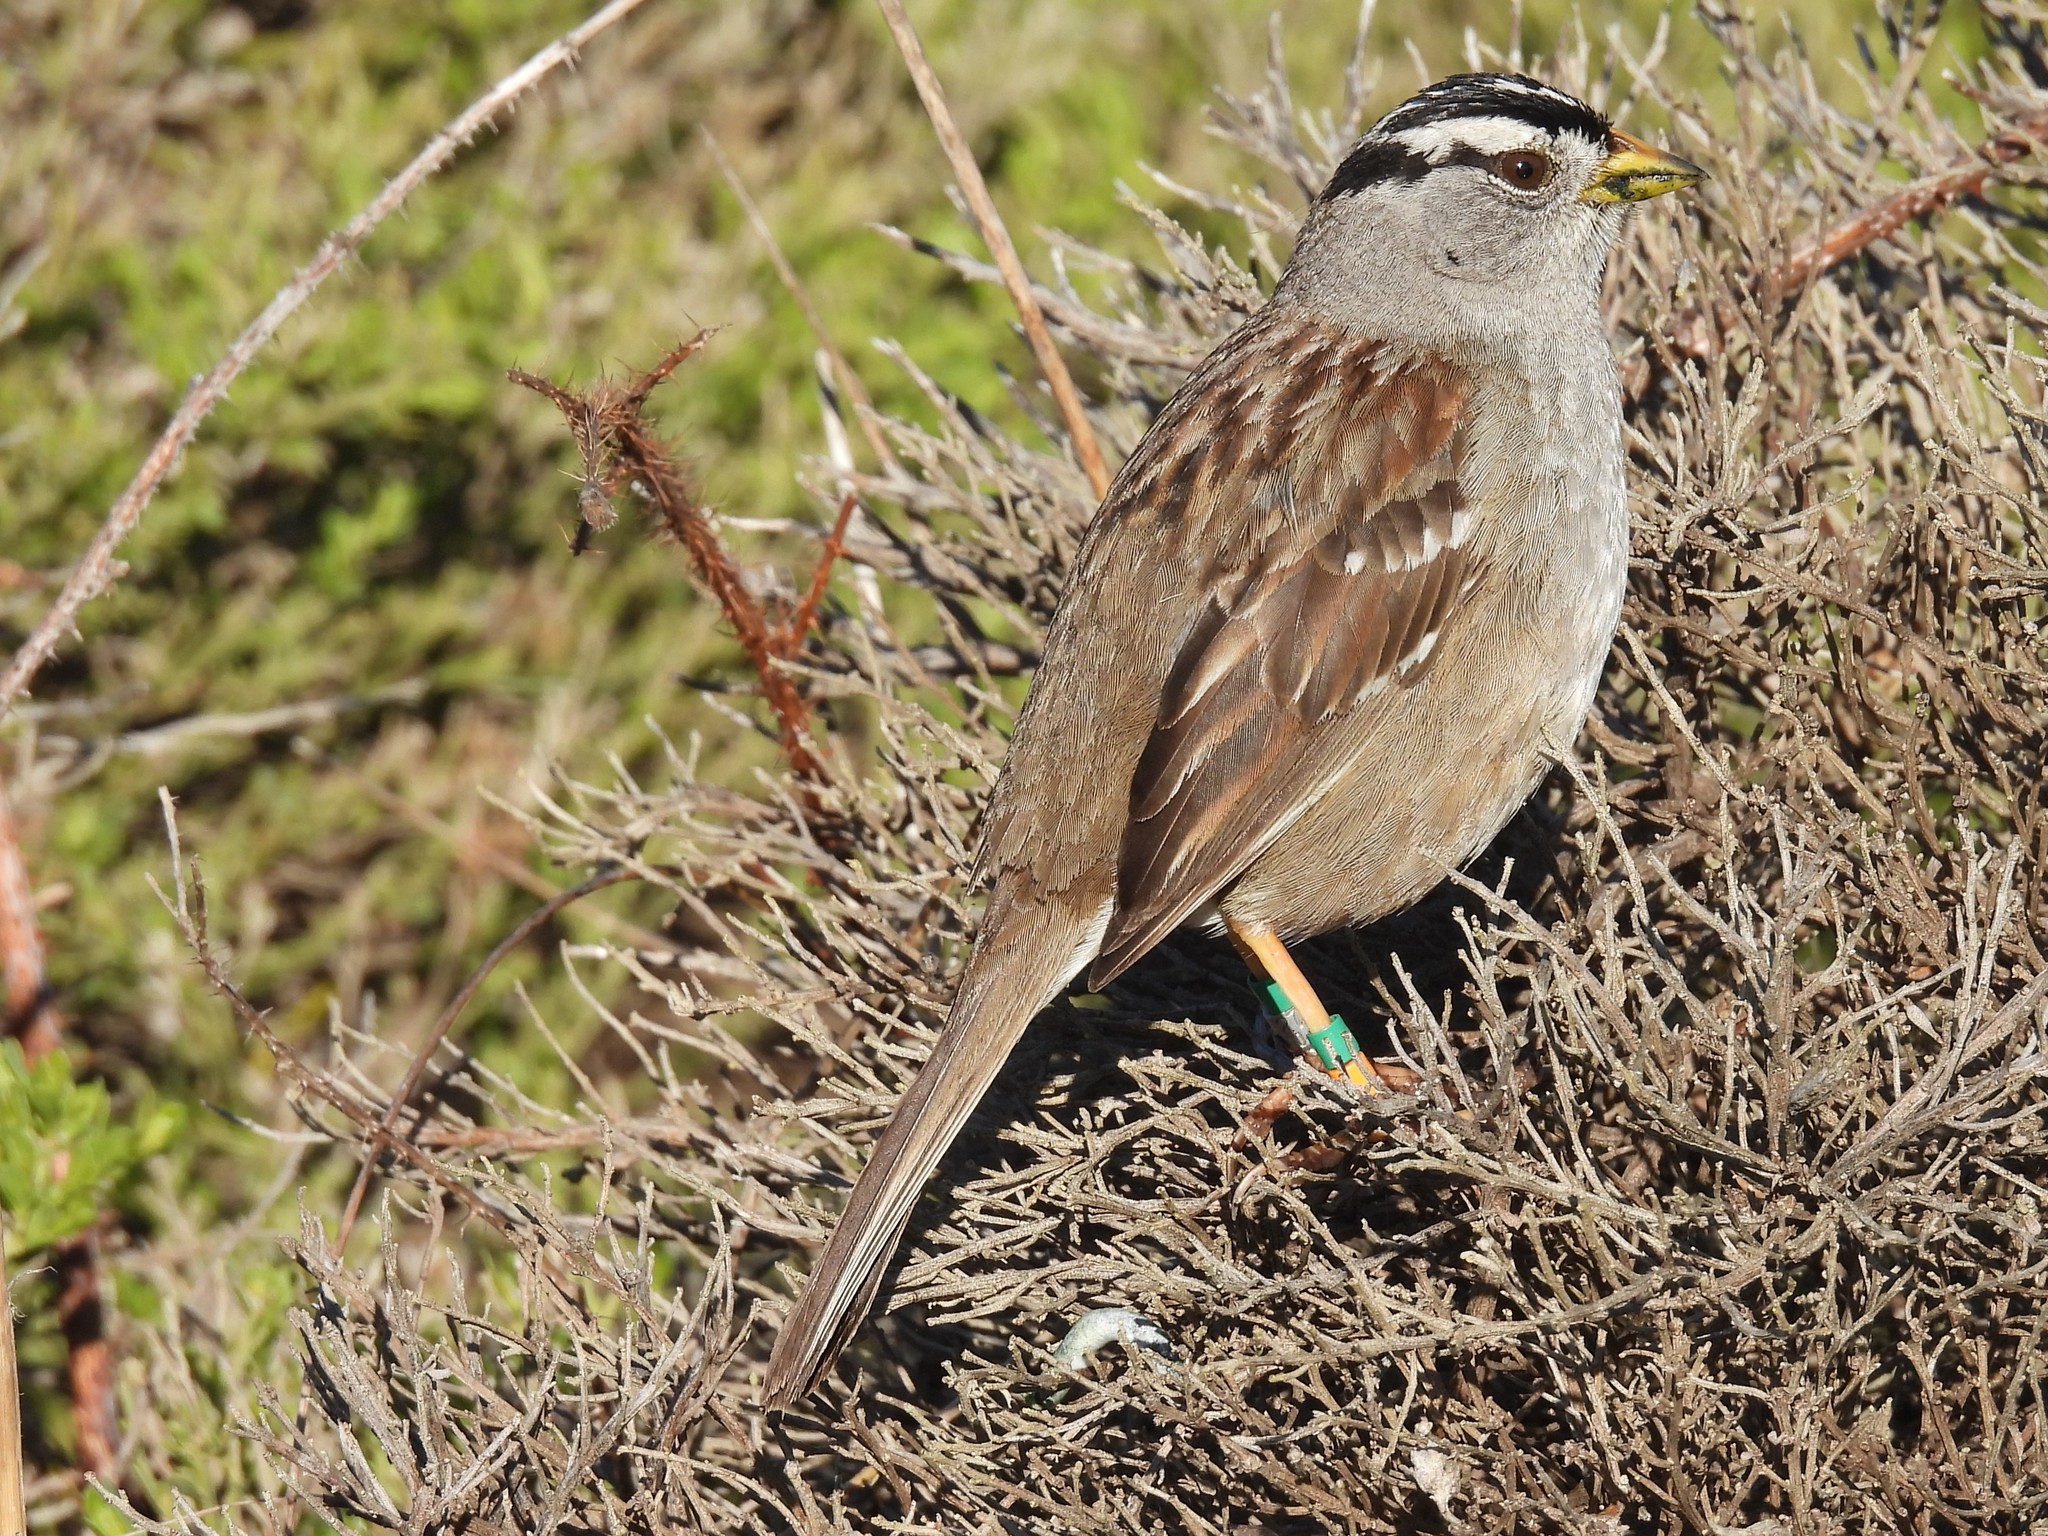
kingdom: Animalia
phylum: Chordata
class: Aves
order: Passeriformes
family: Passerellidae
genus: Zonotrichia
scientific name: Zonotrichia leucophrys
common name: White-crowned sparrow
